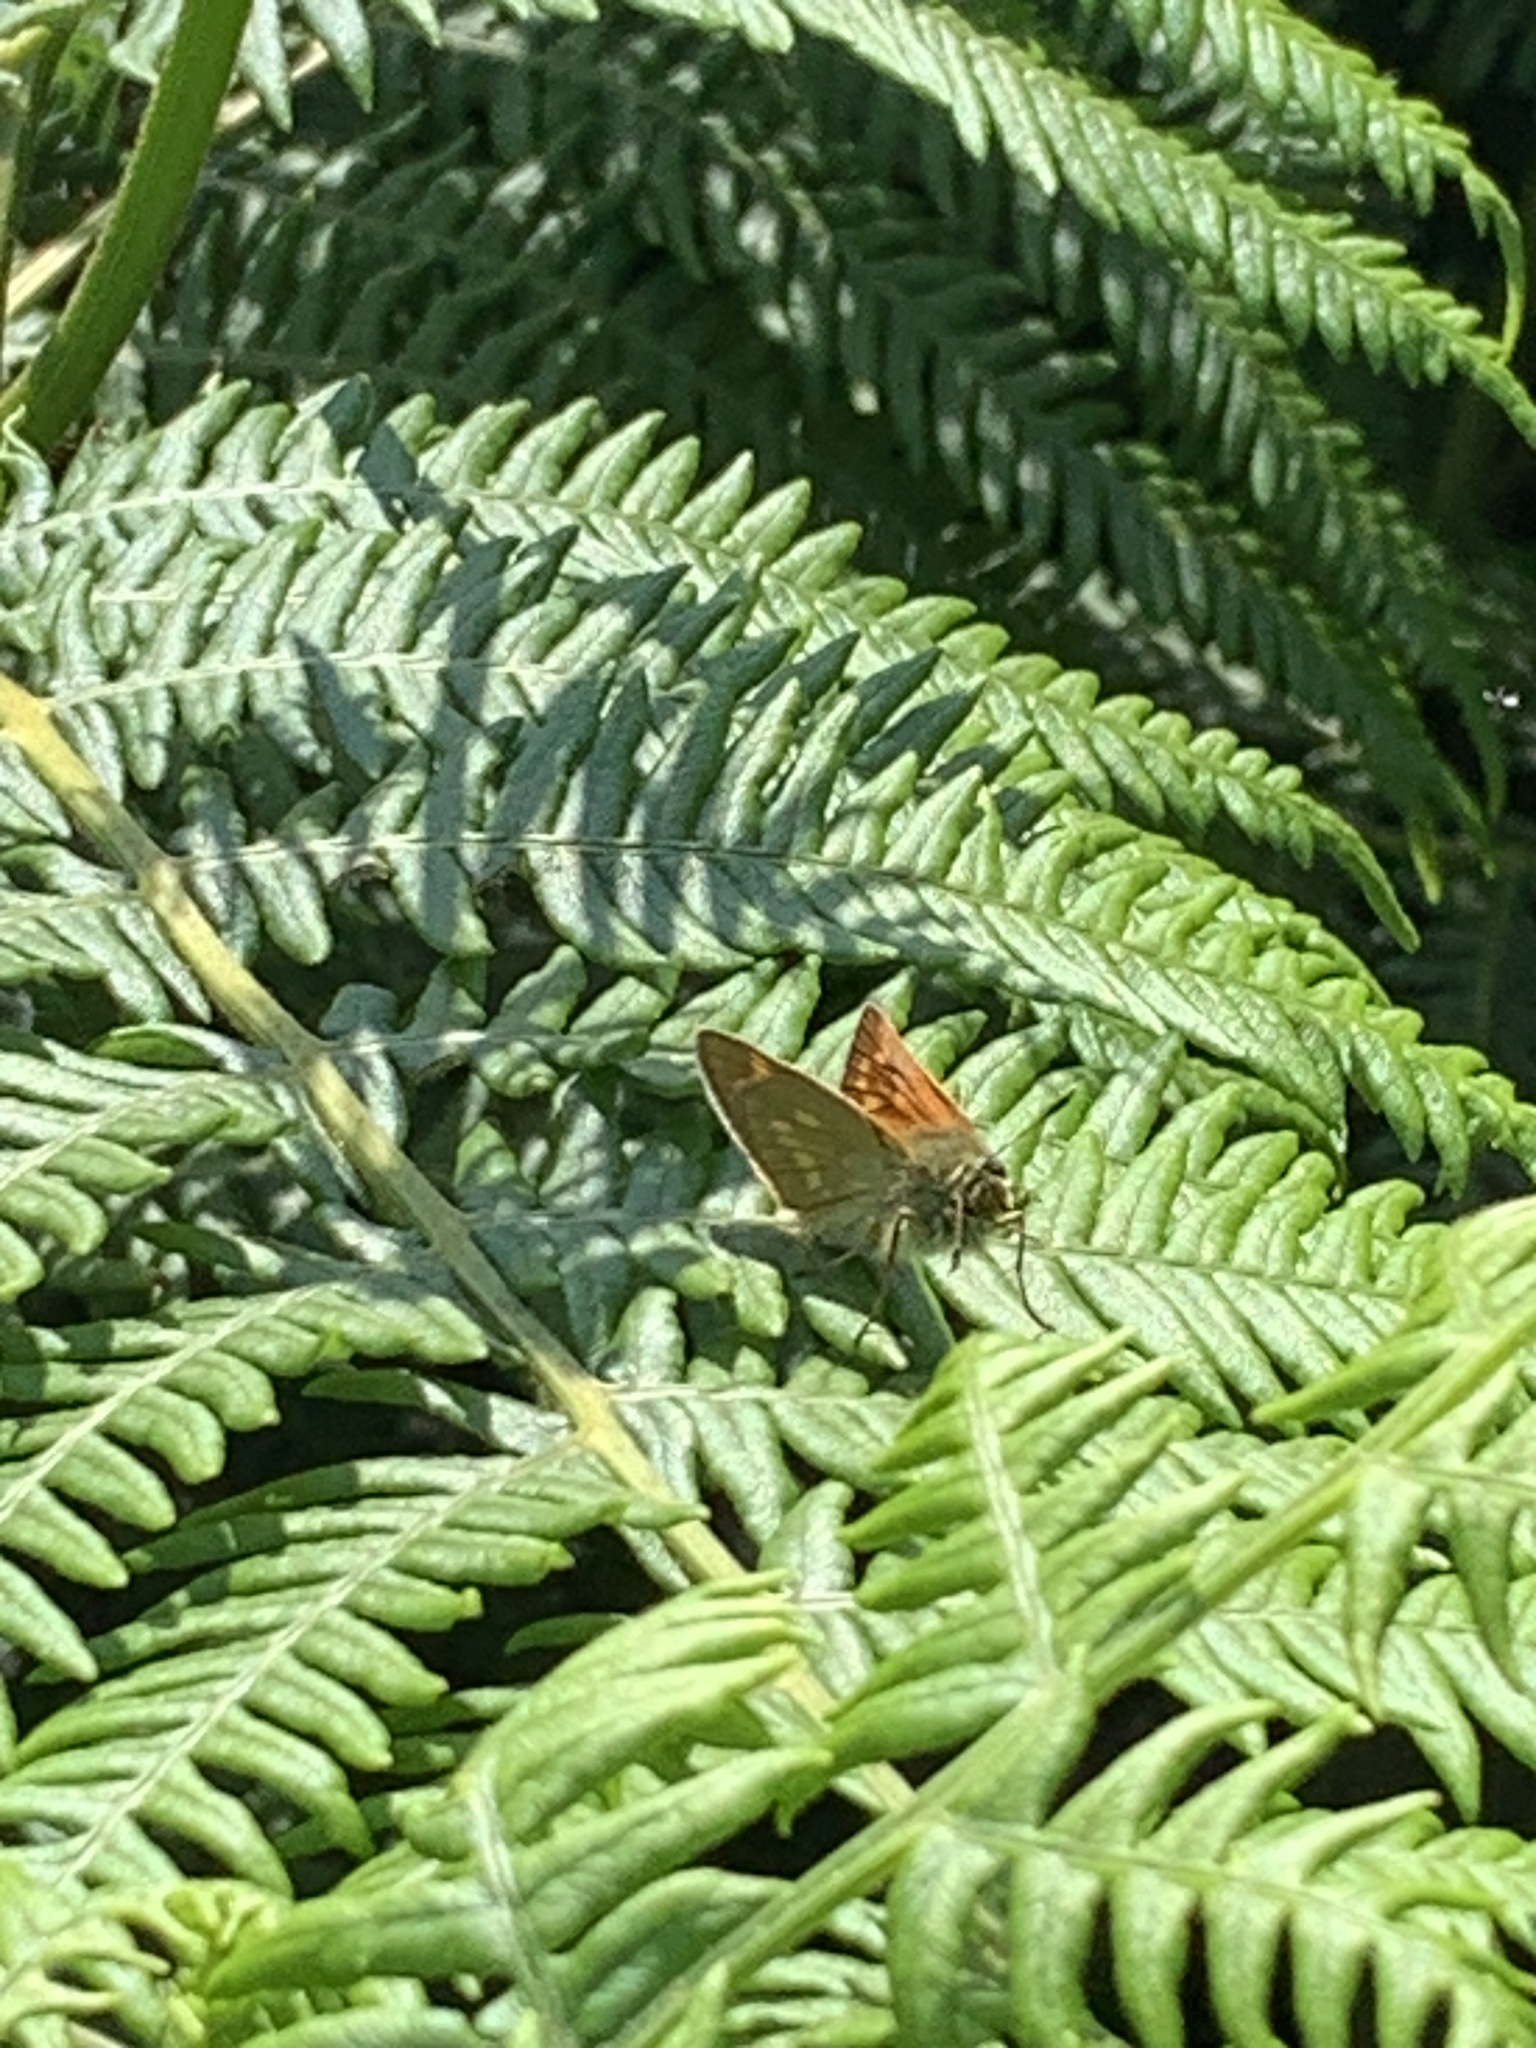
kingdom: Animalia
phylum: Arthropoda
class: Insecta
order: Lepidoptera
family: Hesperiidae
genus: Ochlodes
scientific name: Ochlodes venata
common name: Large skipper
